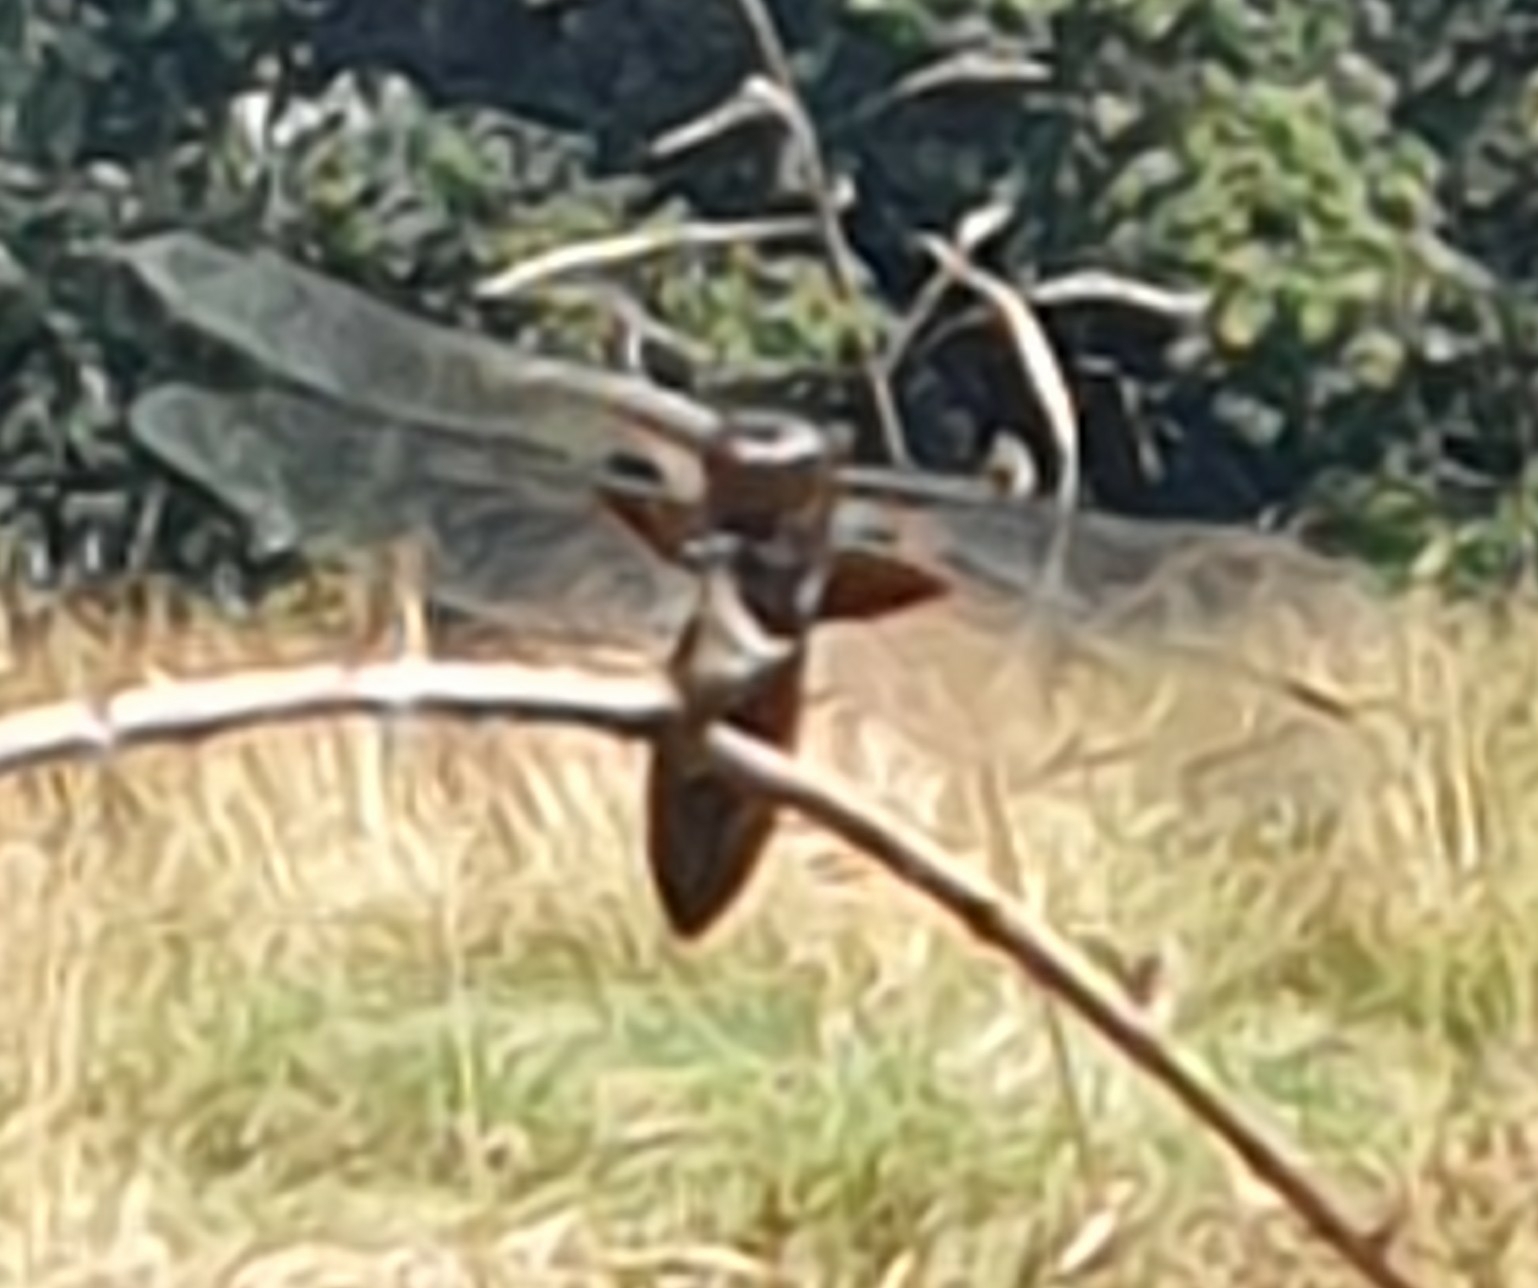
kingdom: Animalia
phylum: Arthropoda
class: Insecta
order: Odonata
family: Libellulidae
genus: Libellula
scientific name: Libellula depressa
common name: Broad-bodied chaser
